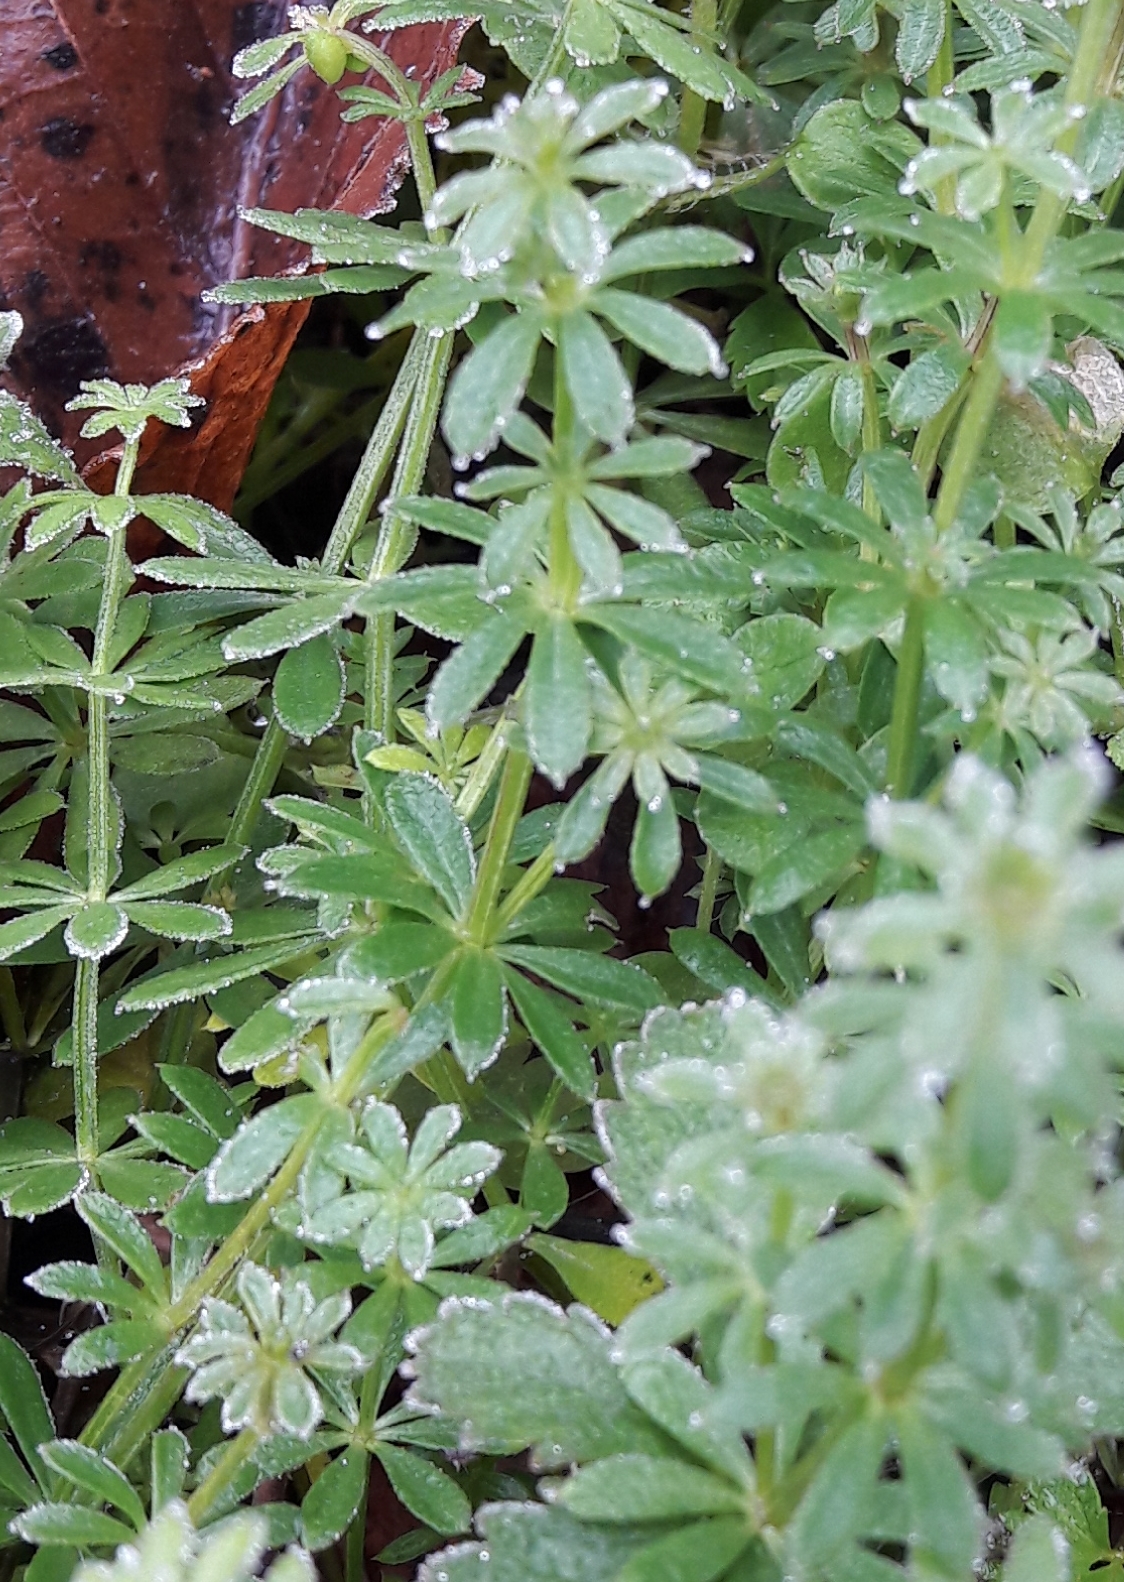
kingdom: Plantae
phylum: Tracheophyta
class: Magnoliopsida
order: Gentianales
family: Rubiaceae
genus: Galium
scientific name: Galium aparine
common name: Cleavers
